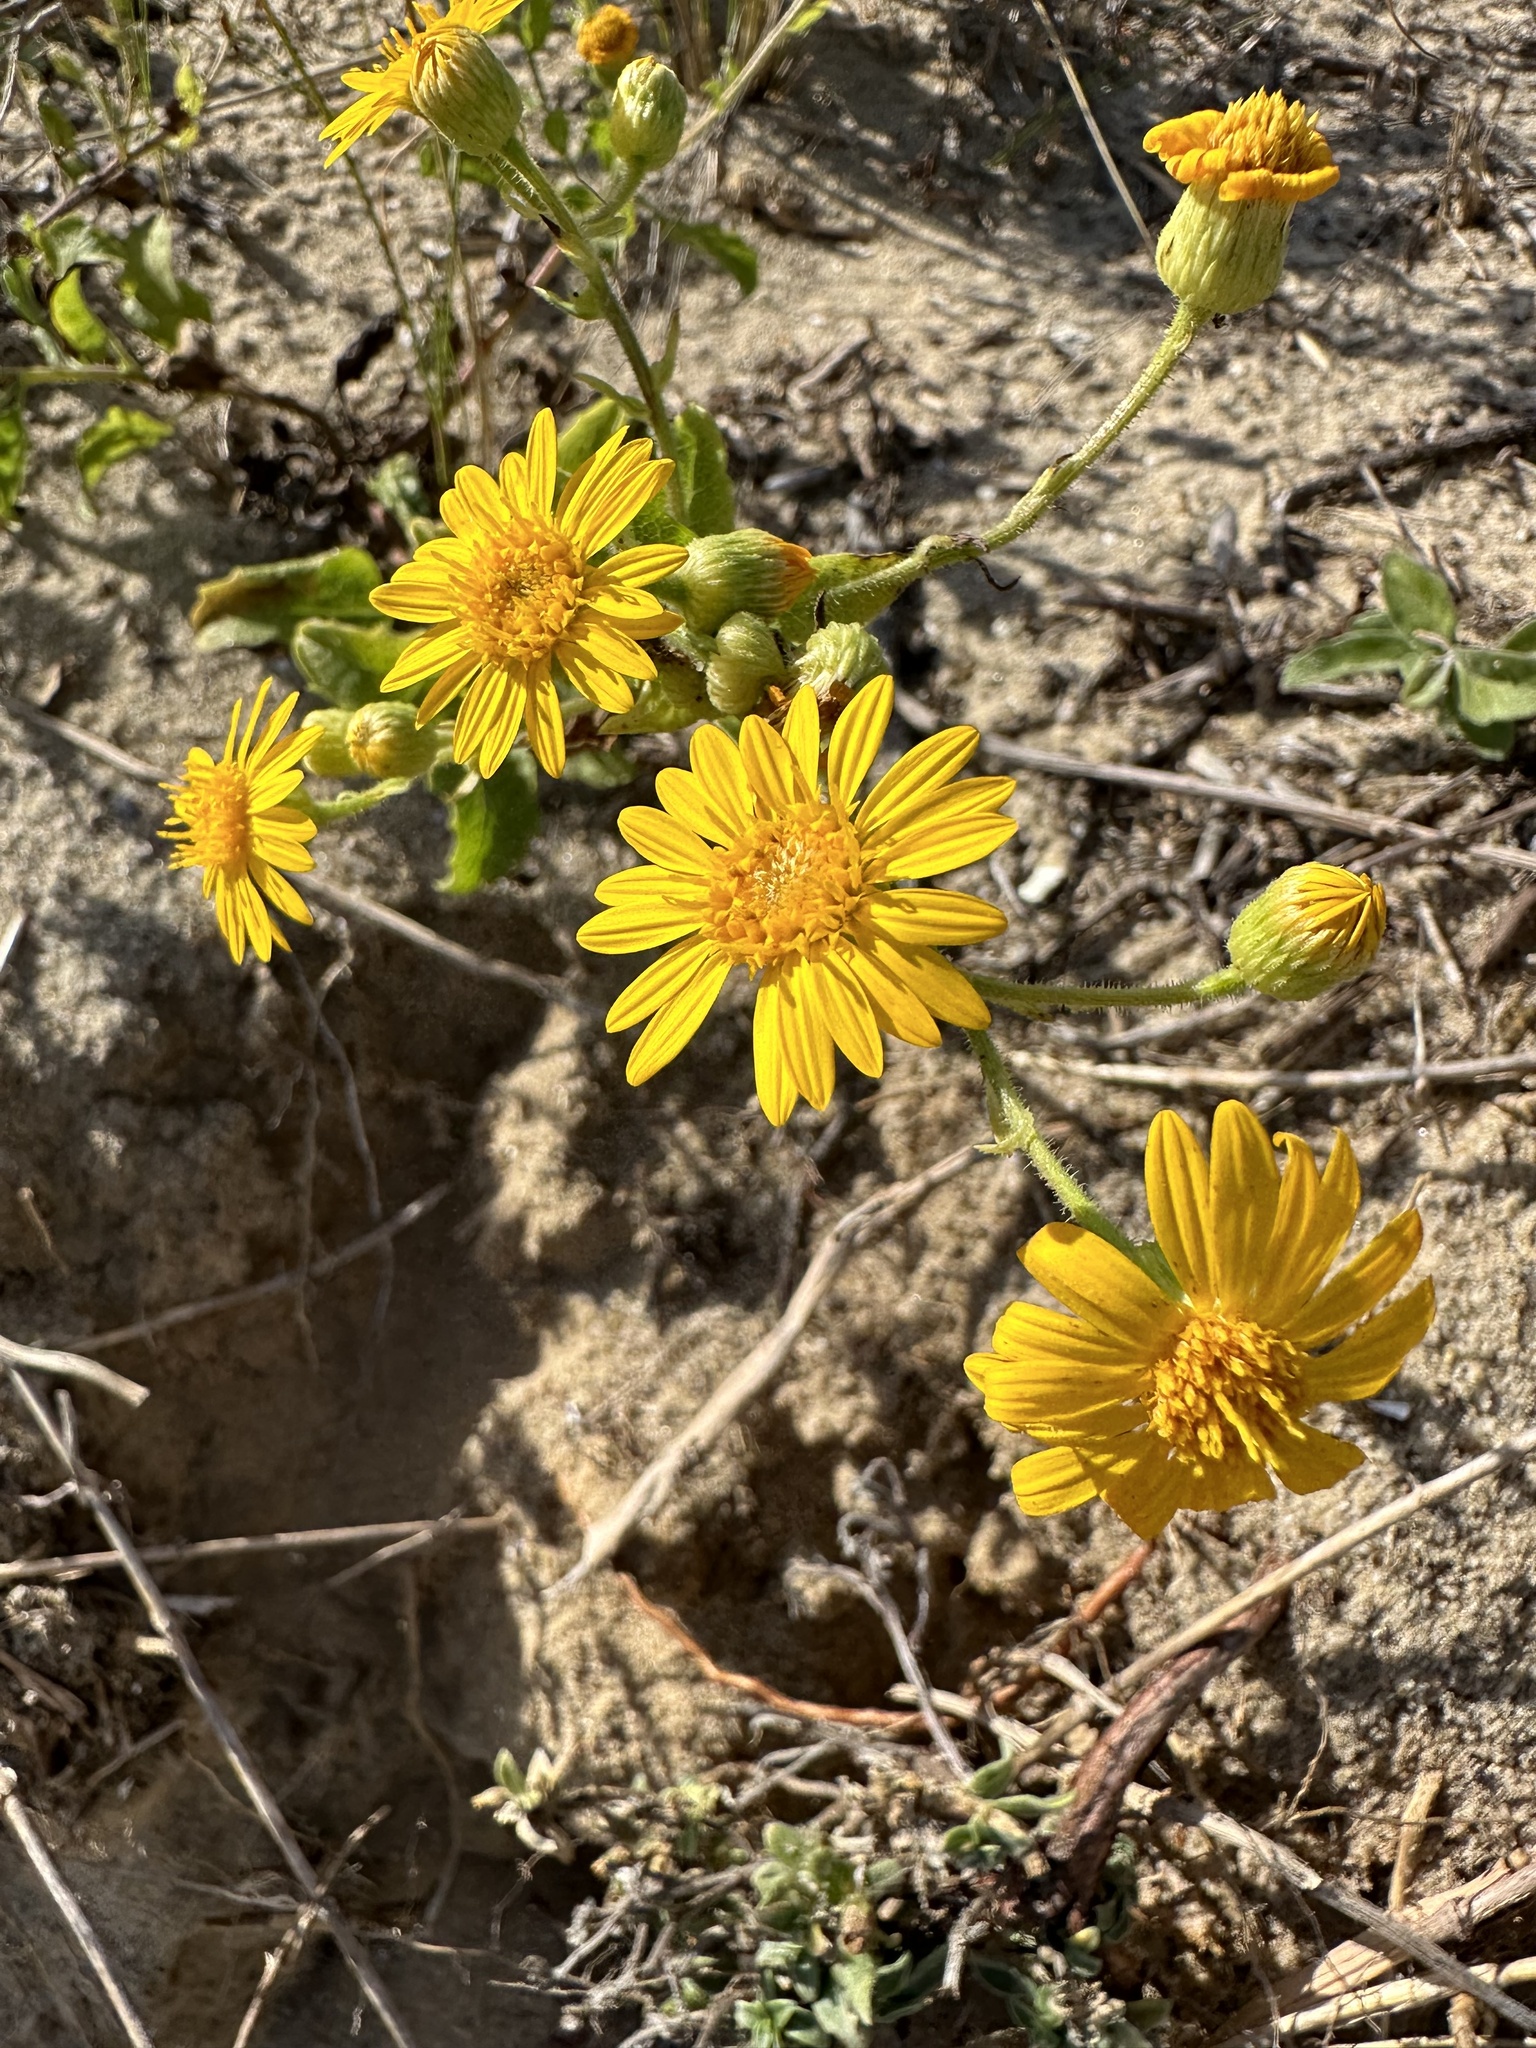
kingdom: Plantae
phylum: Tracheophyta
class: Magnoliopsida
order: Asterales
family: Asteraceae
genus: Heterotheca
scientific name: Heterotheca subaxillaris
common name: Camphorweed
